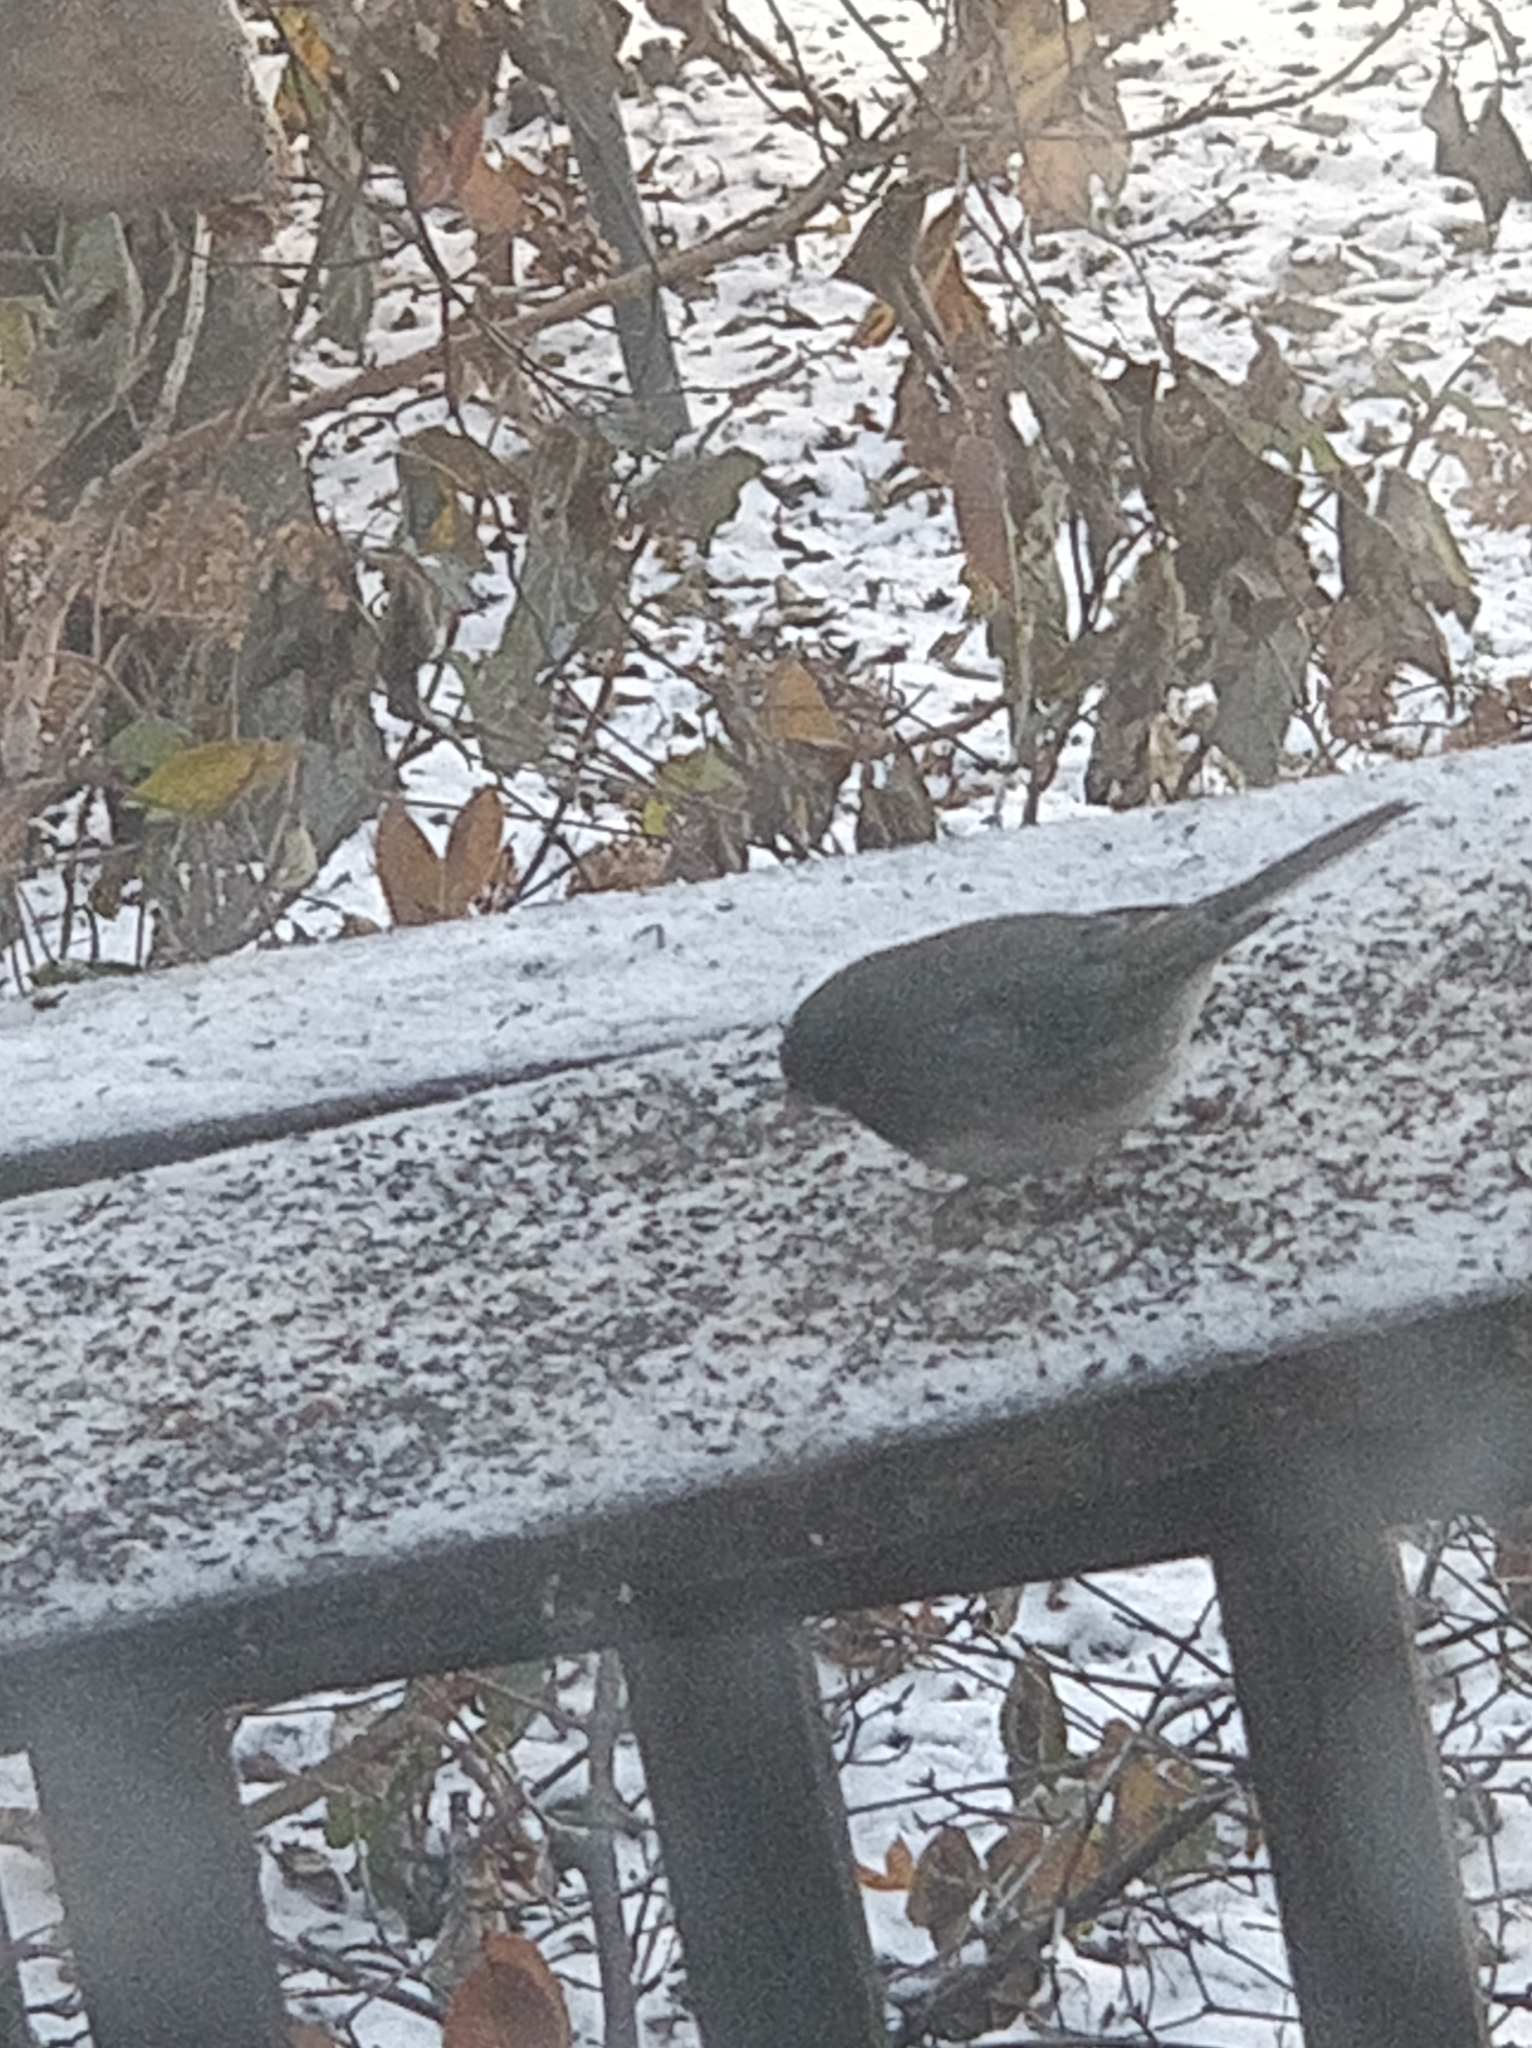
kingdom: Animalia
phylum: Chordata
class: Aves
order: Passeriformes
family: Passerellidae
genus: Junco
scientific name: Junco hyemalis
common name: Dark-eyed junco
